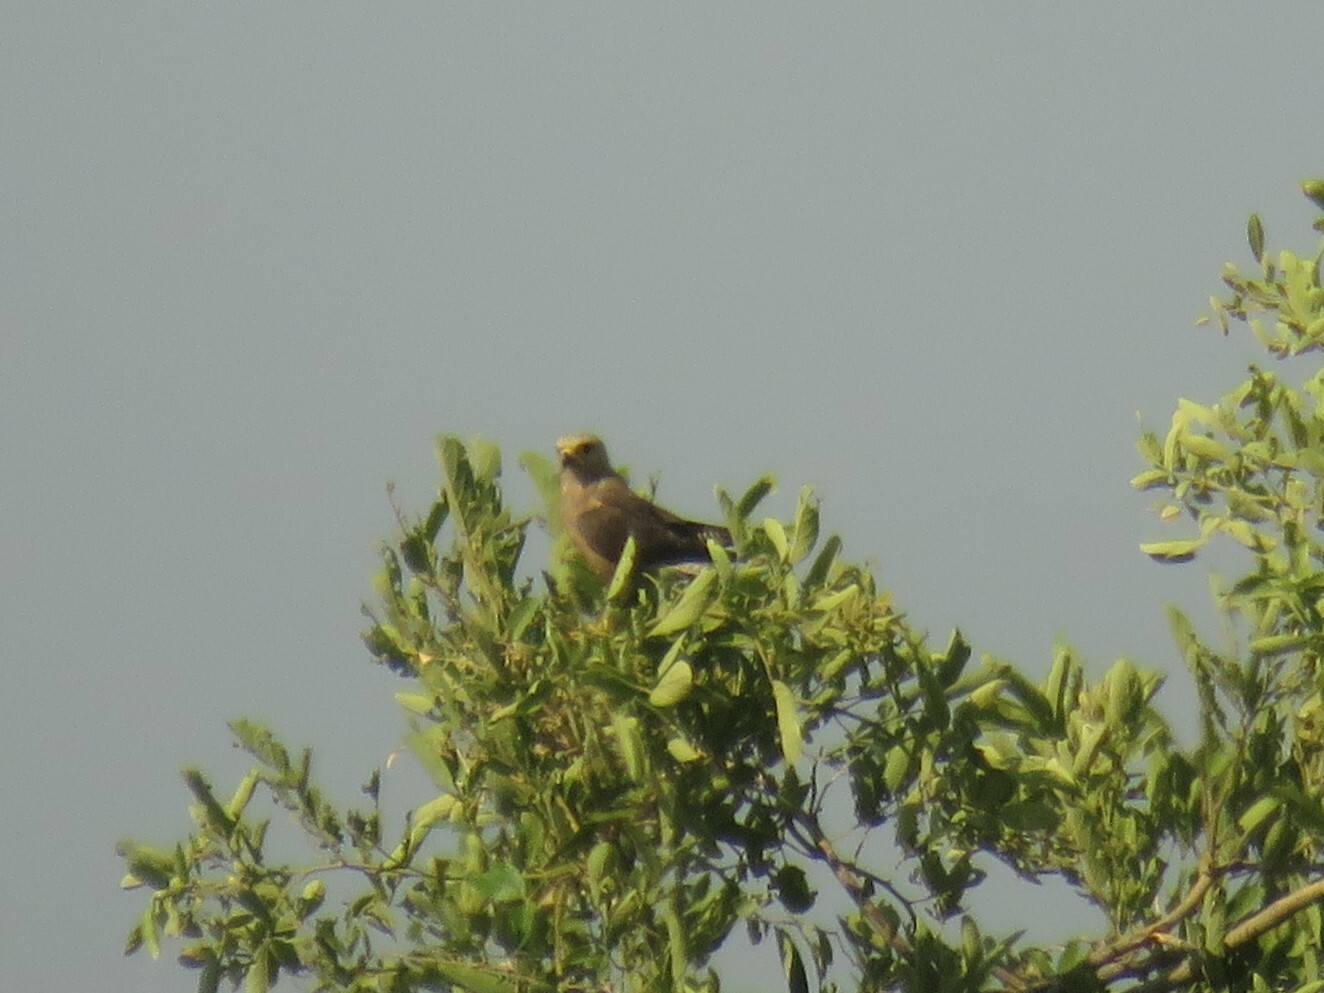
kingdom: Animalia
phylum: Chordata
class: Aves
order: Falconiformes
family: Falconidae
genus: Falco
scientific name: Falco dickinsoni
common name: Dickinson's kestrel
